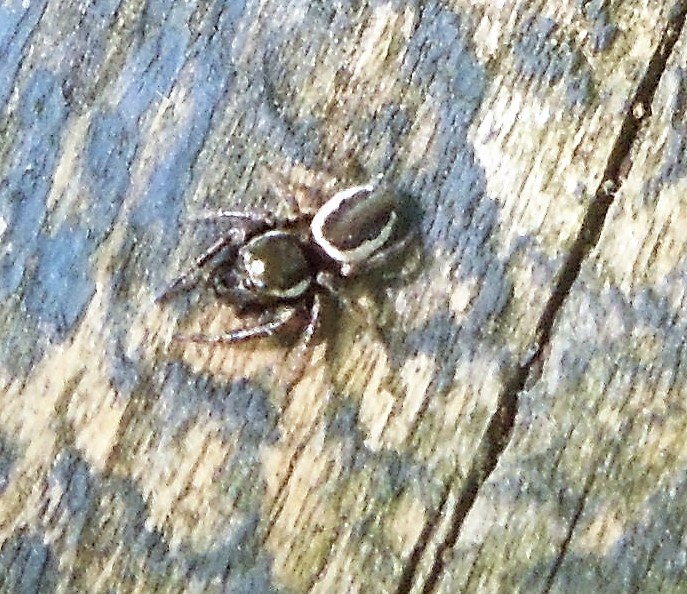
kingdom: Animalia
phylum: Arthropoda
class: Arachnida
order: Araneae
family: Salticidae
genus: Eris
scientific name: Eris militaris
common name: Bronze jumper
